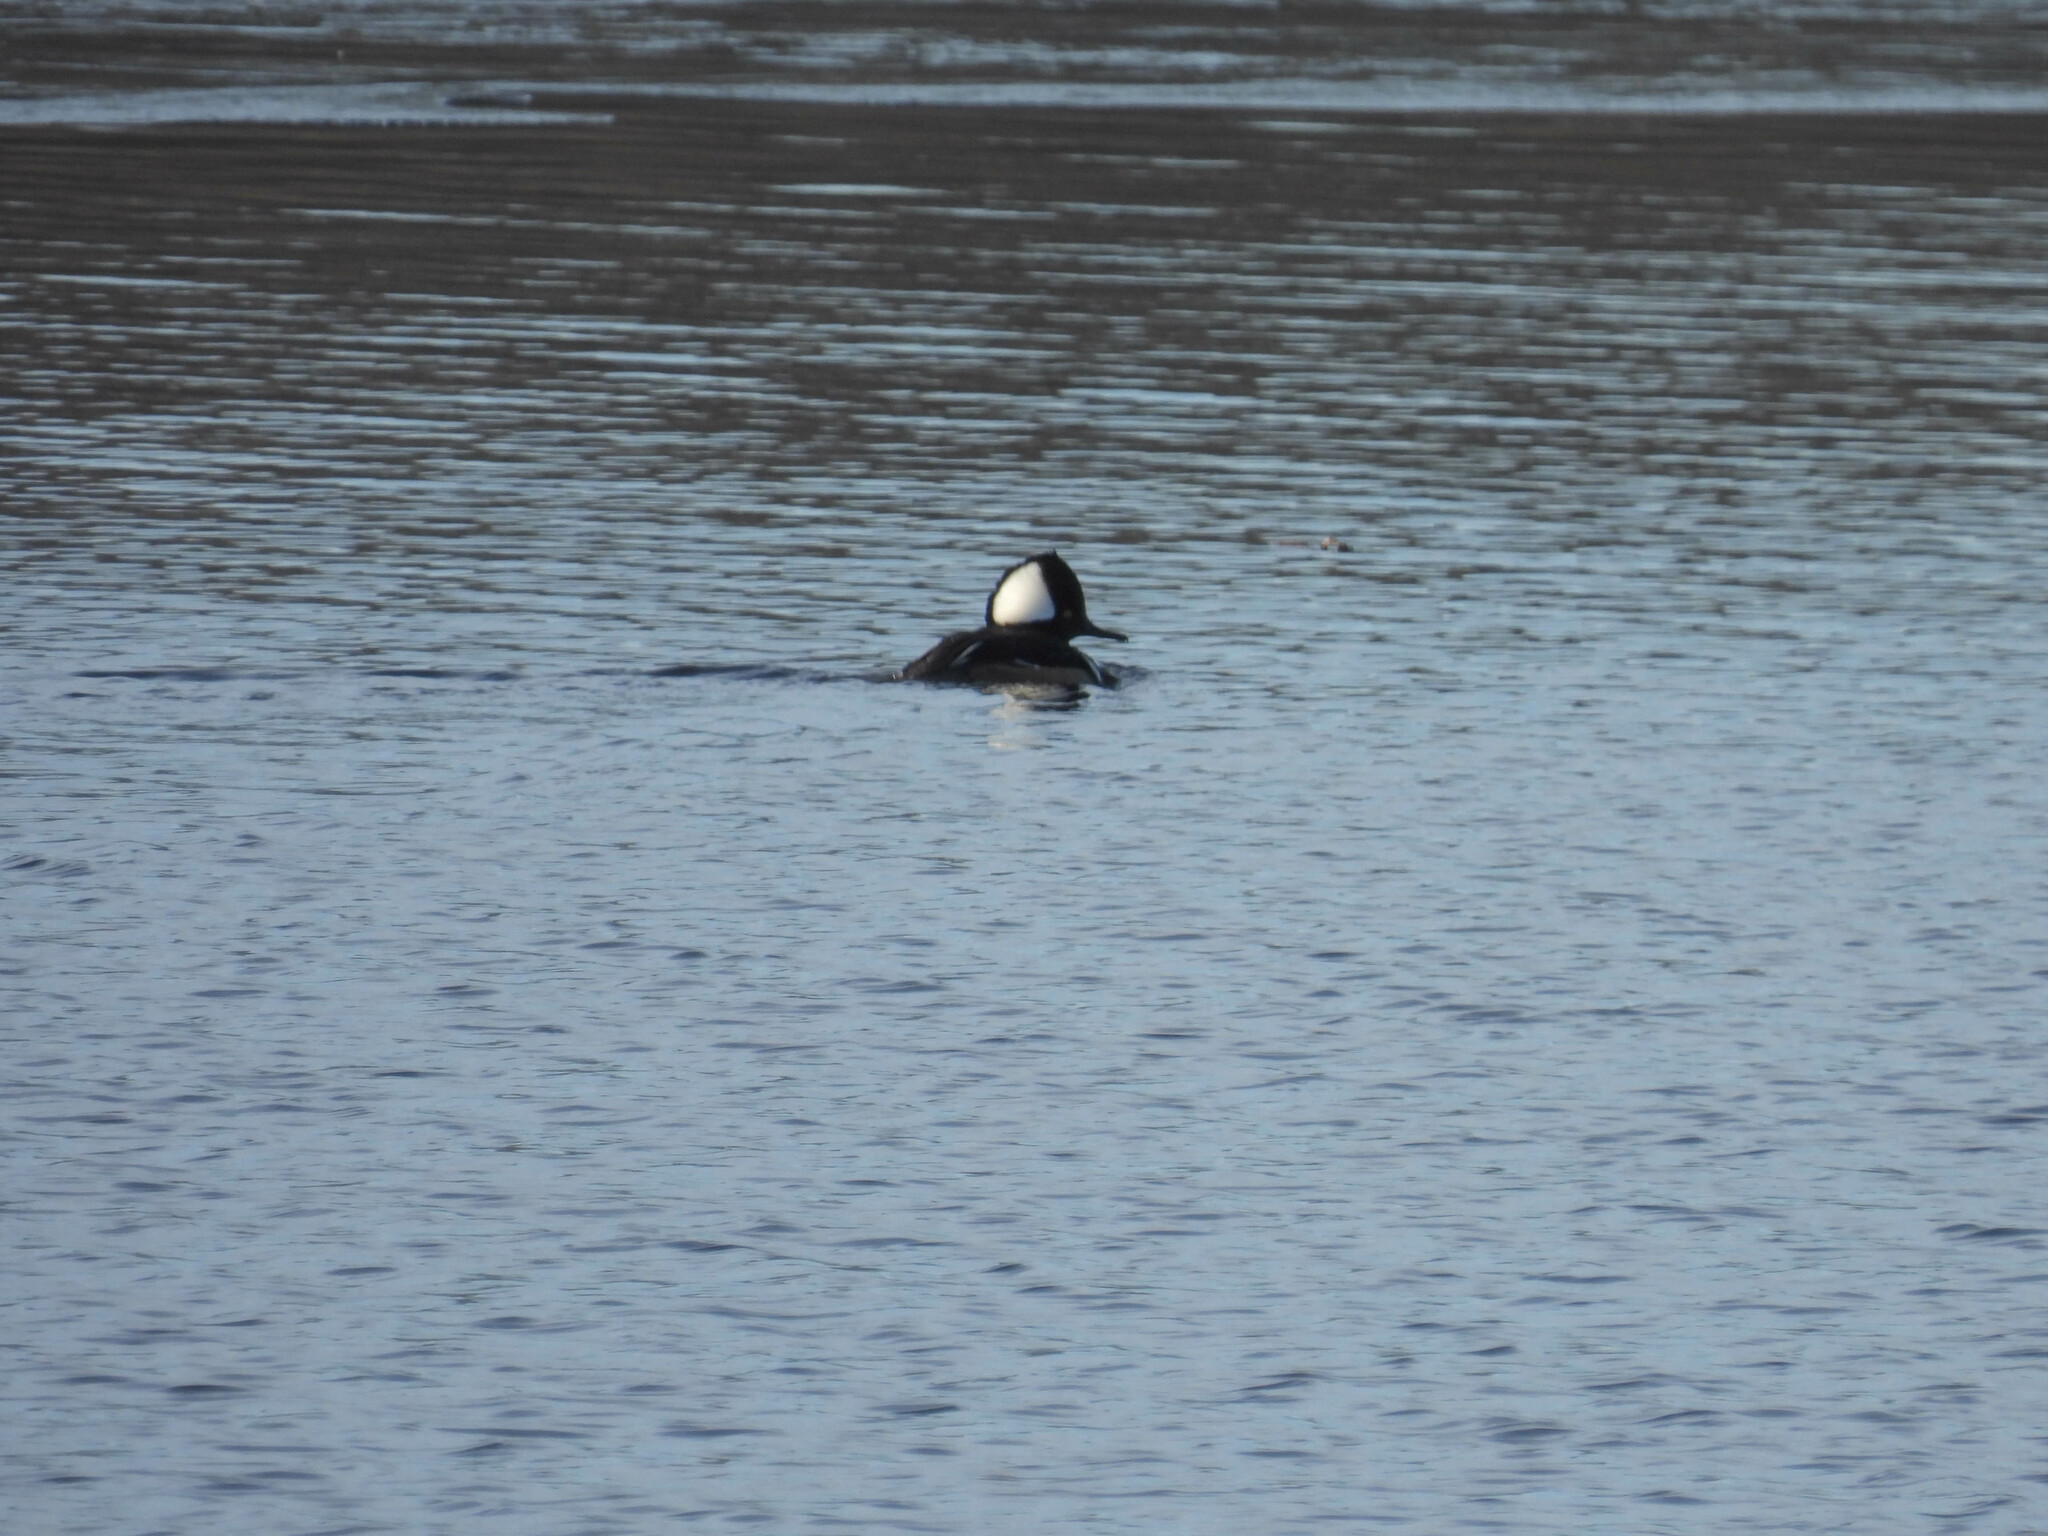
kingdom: Animalia
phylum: Chordata
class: Aves
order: Anseriformes
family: Anatidae
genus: Lophodytes
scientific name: Lophodytes cucullatus
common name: Hooded merganser
